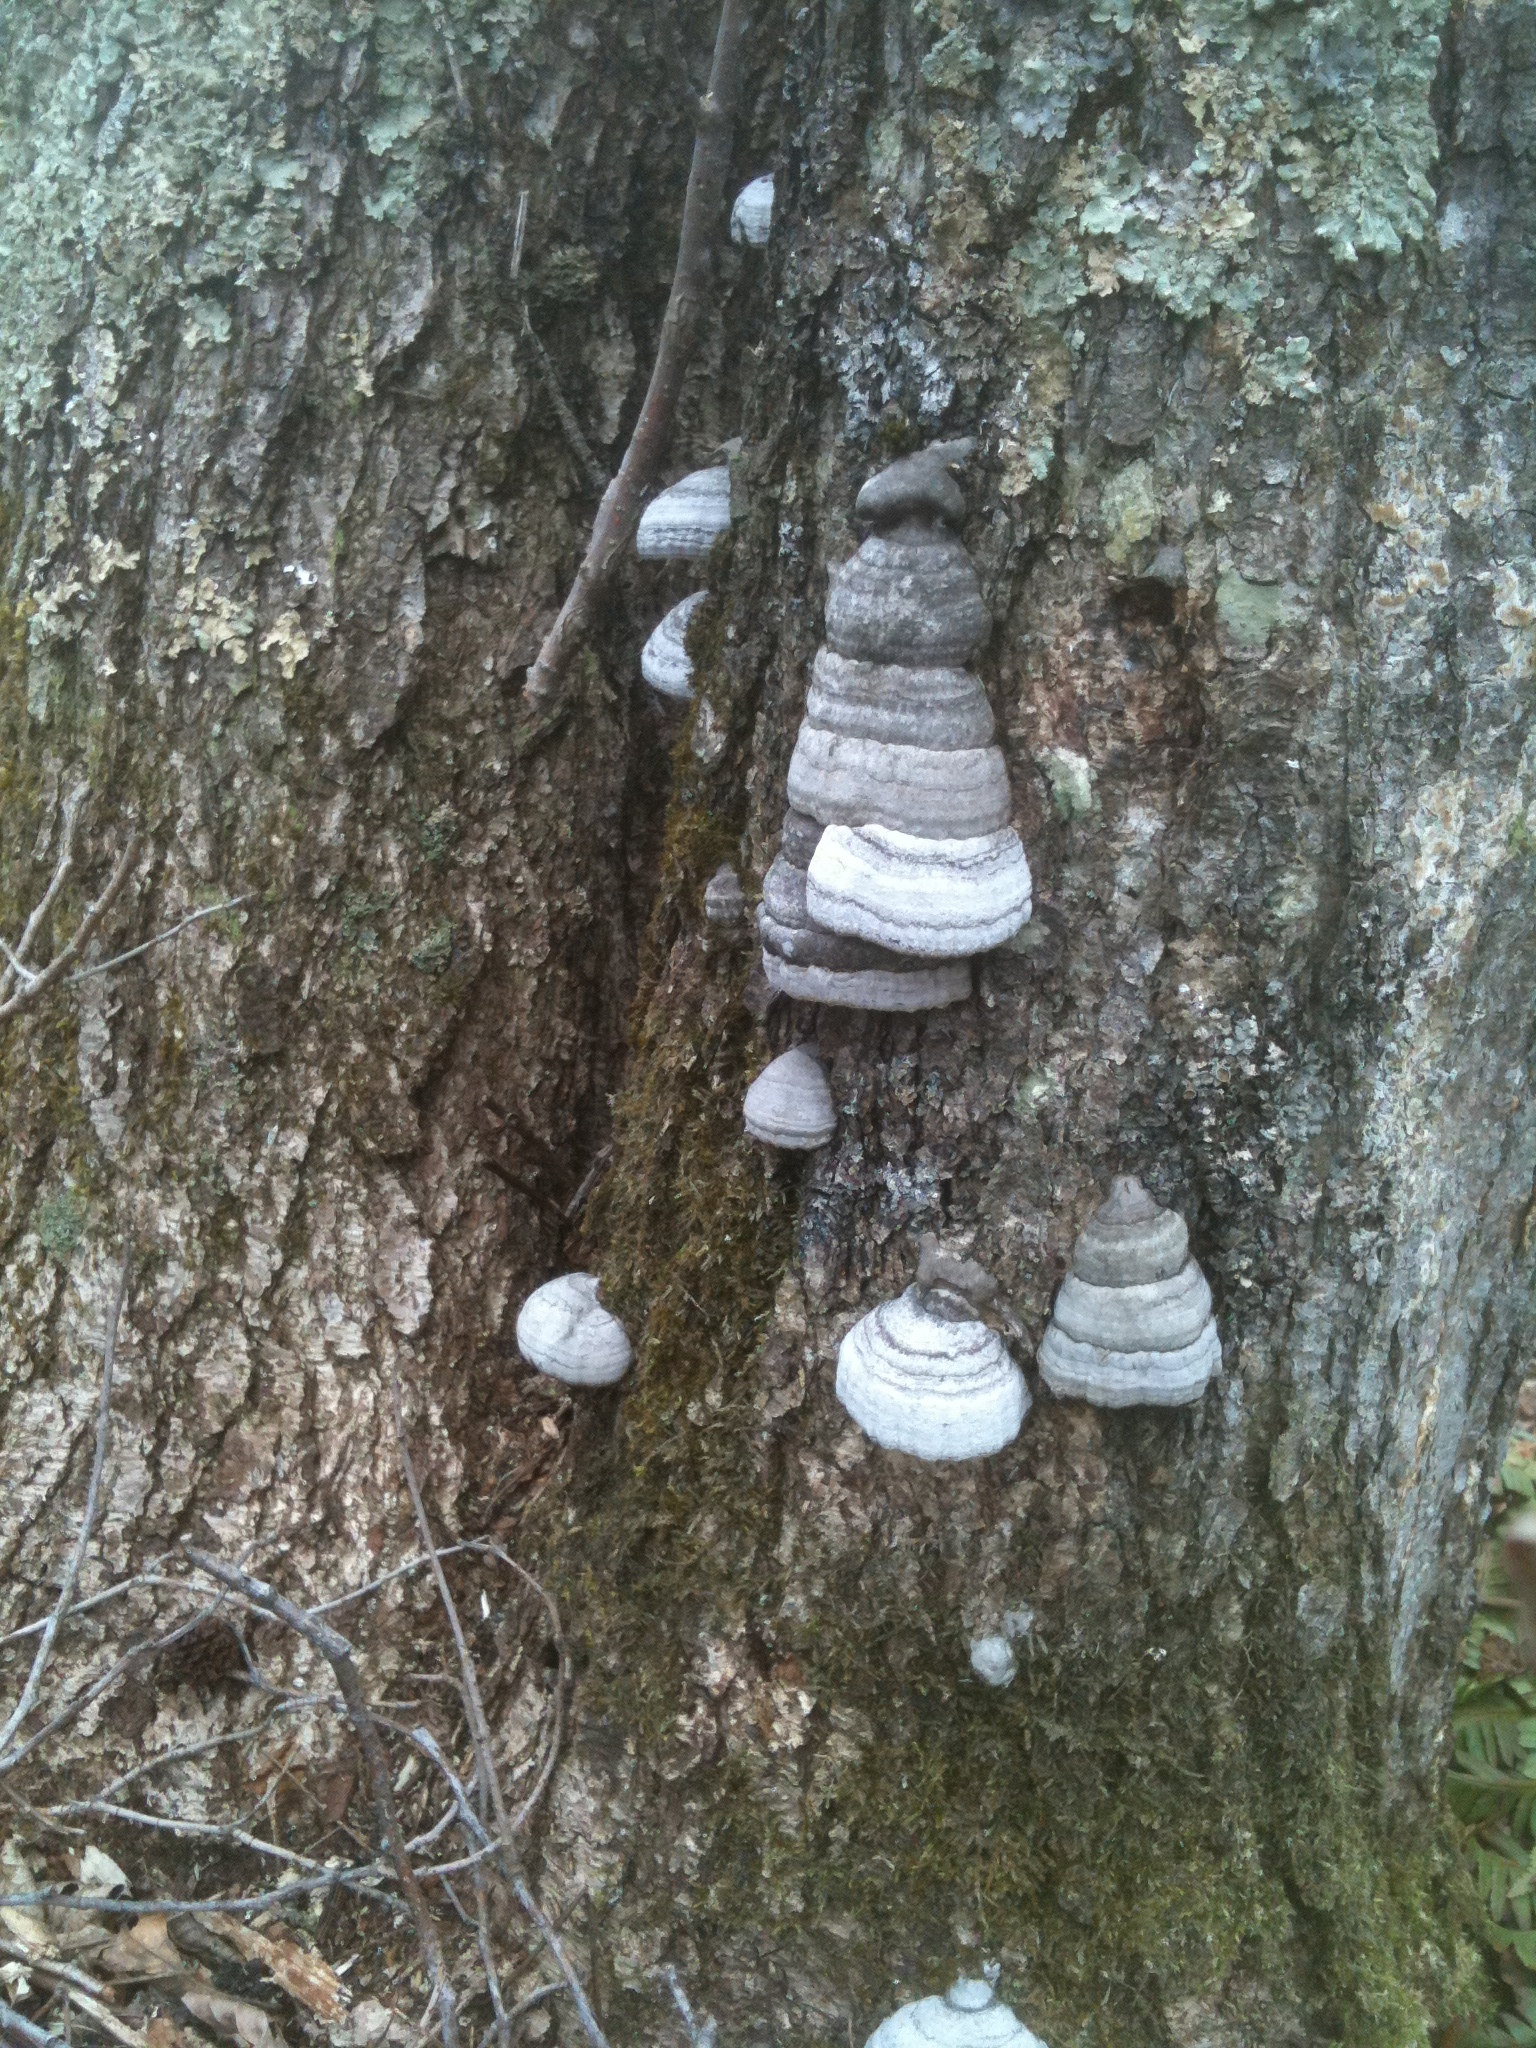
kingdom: Fungi
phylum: Basidiomycota
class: Agaricomycetes
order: Polyporales
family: Polyporaceae
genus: Fomes
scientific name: Fomes fomentarius
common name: Hoof fungus
